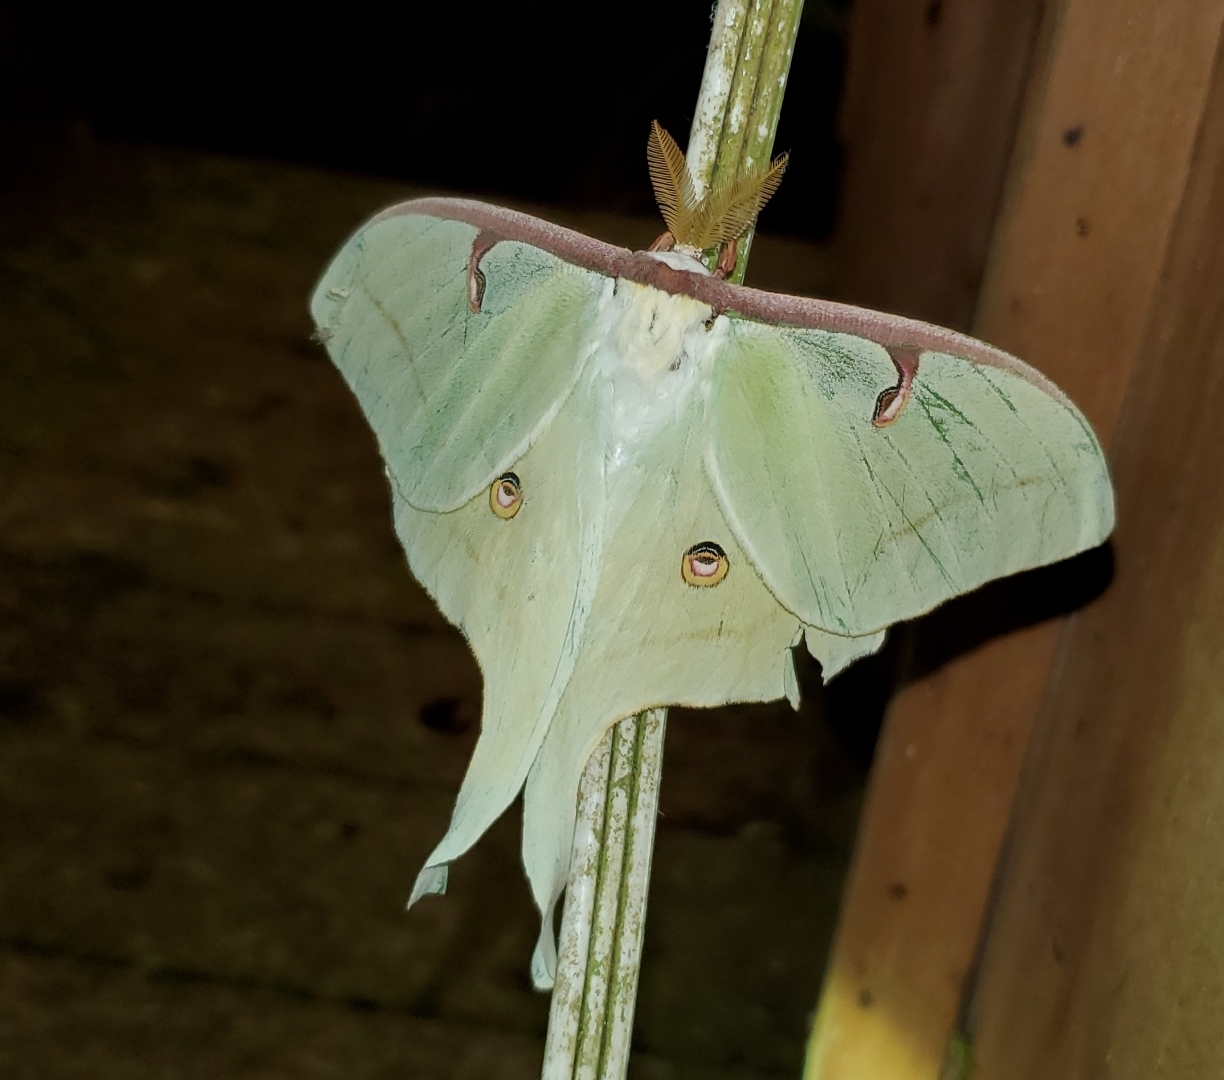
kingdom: Animalia
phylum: Arthropoda
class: Insecta
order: Lepidoptera
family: Saturniidae
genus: Actias
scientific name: Actias luna
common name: Luna moth
